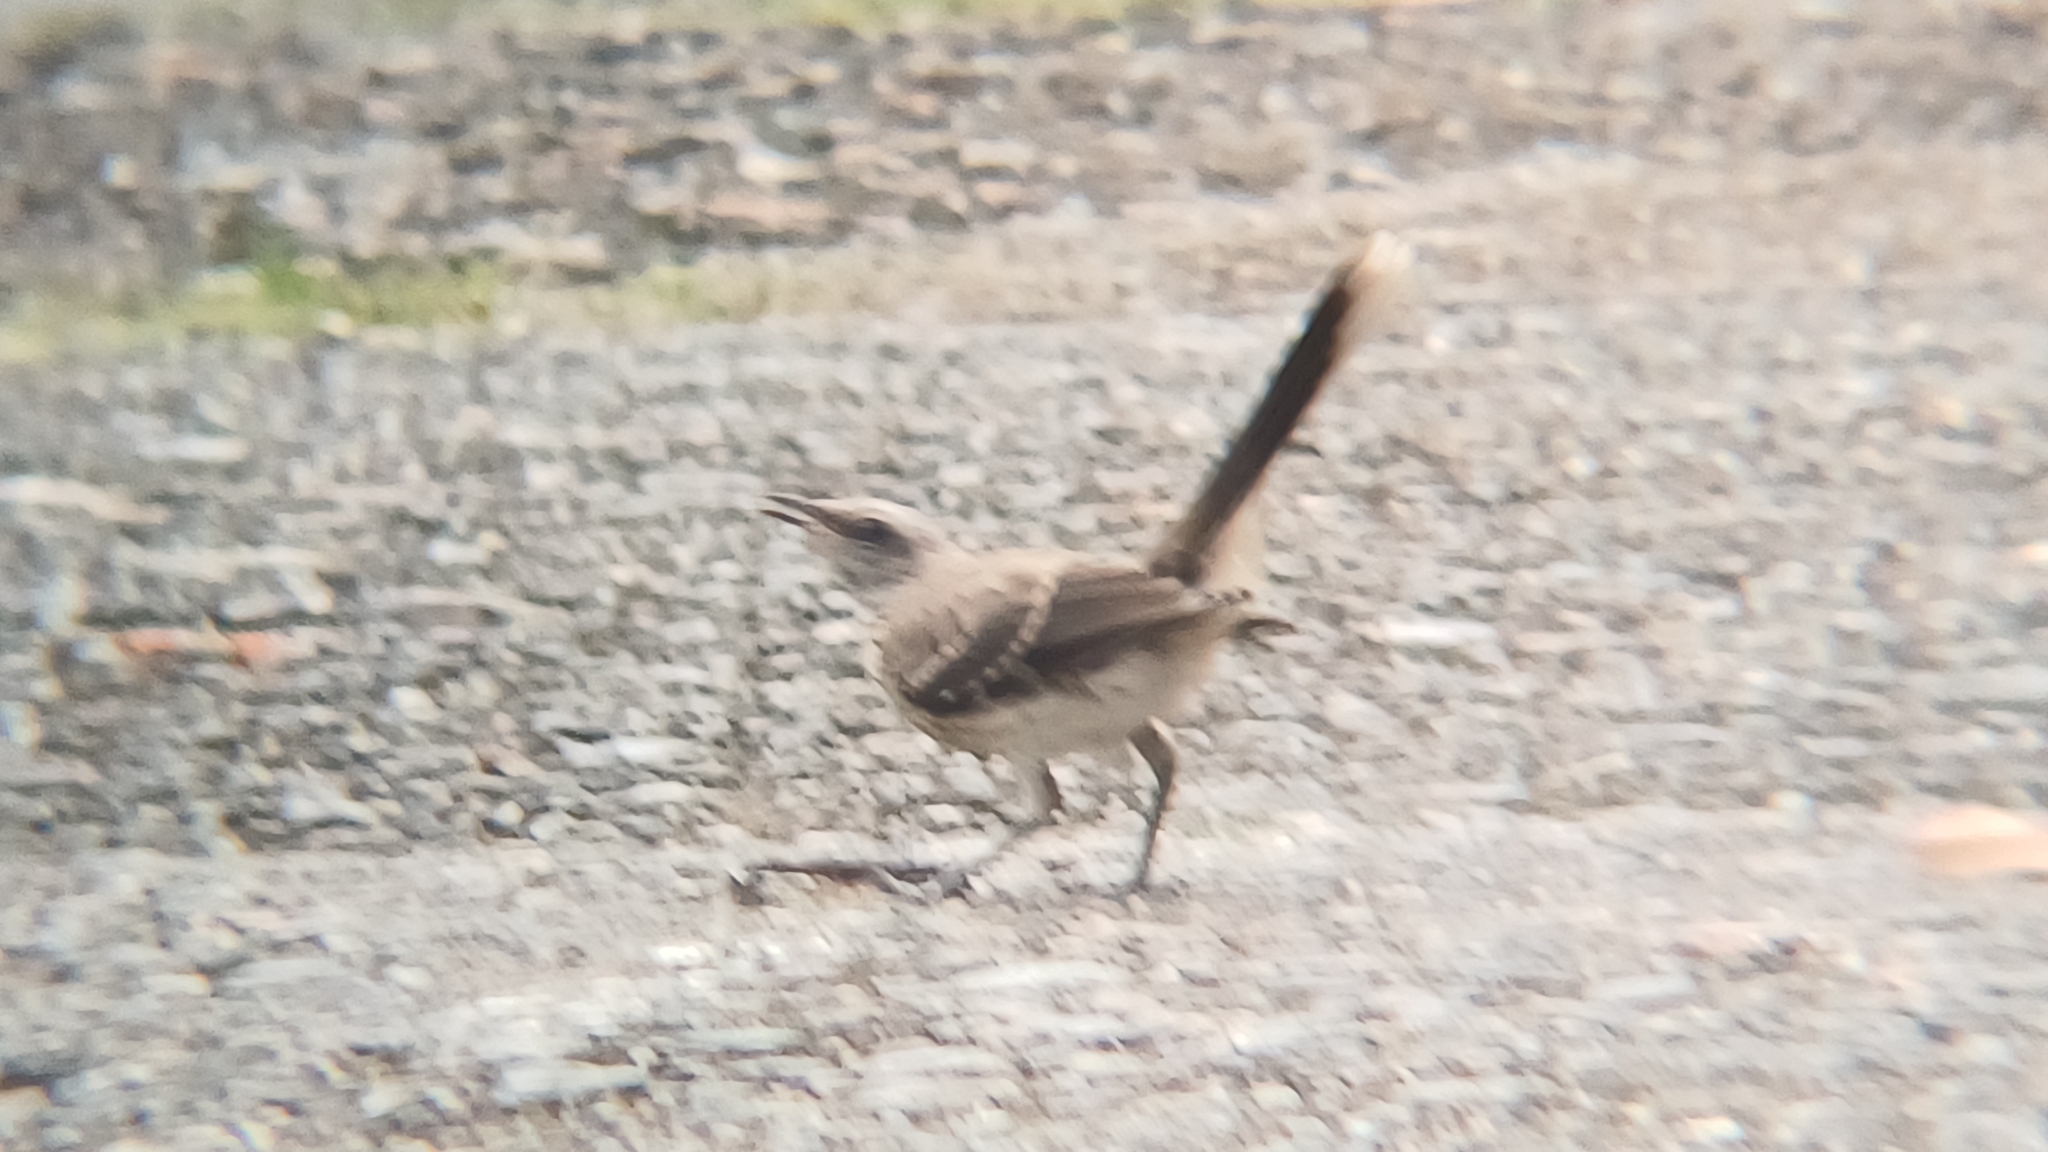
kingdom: Animalia
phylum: Chordata
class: Aves
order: Passeriformes
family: Mimidae
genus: Mimus
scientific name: Mimus gilvus
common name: Tropical mockingbird
